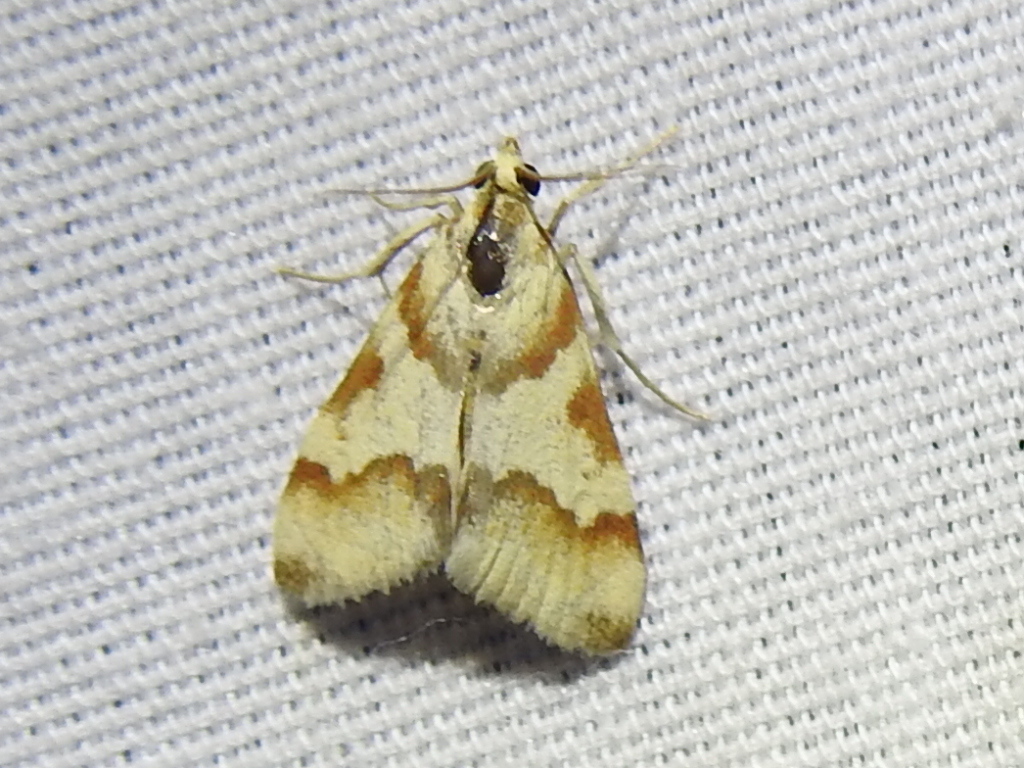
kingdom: Animalia
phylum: Arthropoda
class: Insecta
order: Lepidoptera
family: Crambidae
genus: Noctuelia
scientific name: Noctuelia Mimoschinia rufofascialis
